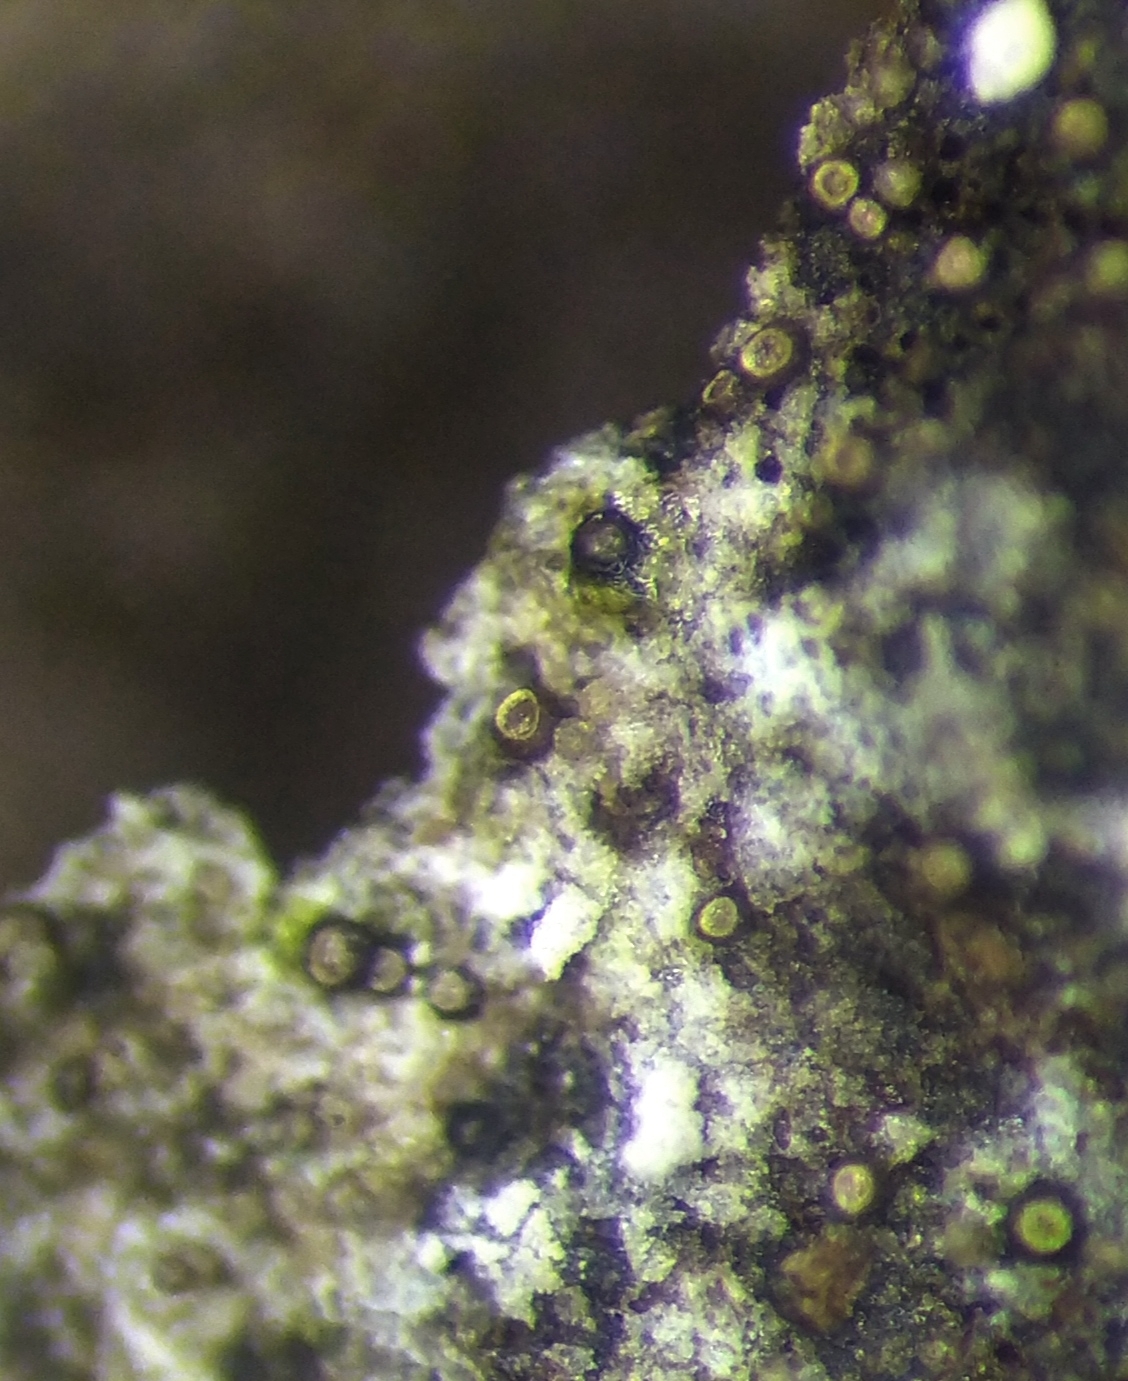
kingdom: Protozoa
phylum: Mycetozoa
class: Myxomycetes
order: Cribrariales
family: Liceaceae
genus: Licea
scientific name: Licea kleistobolus
